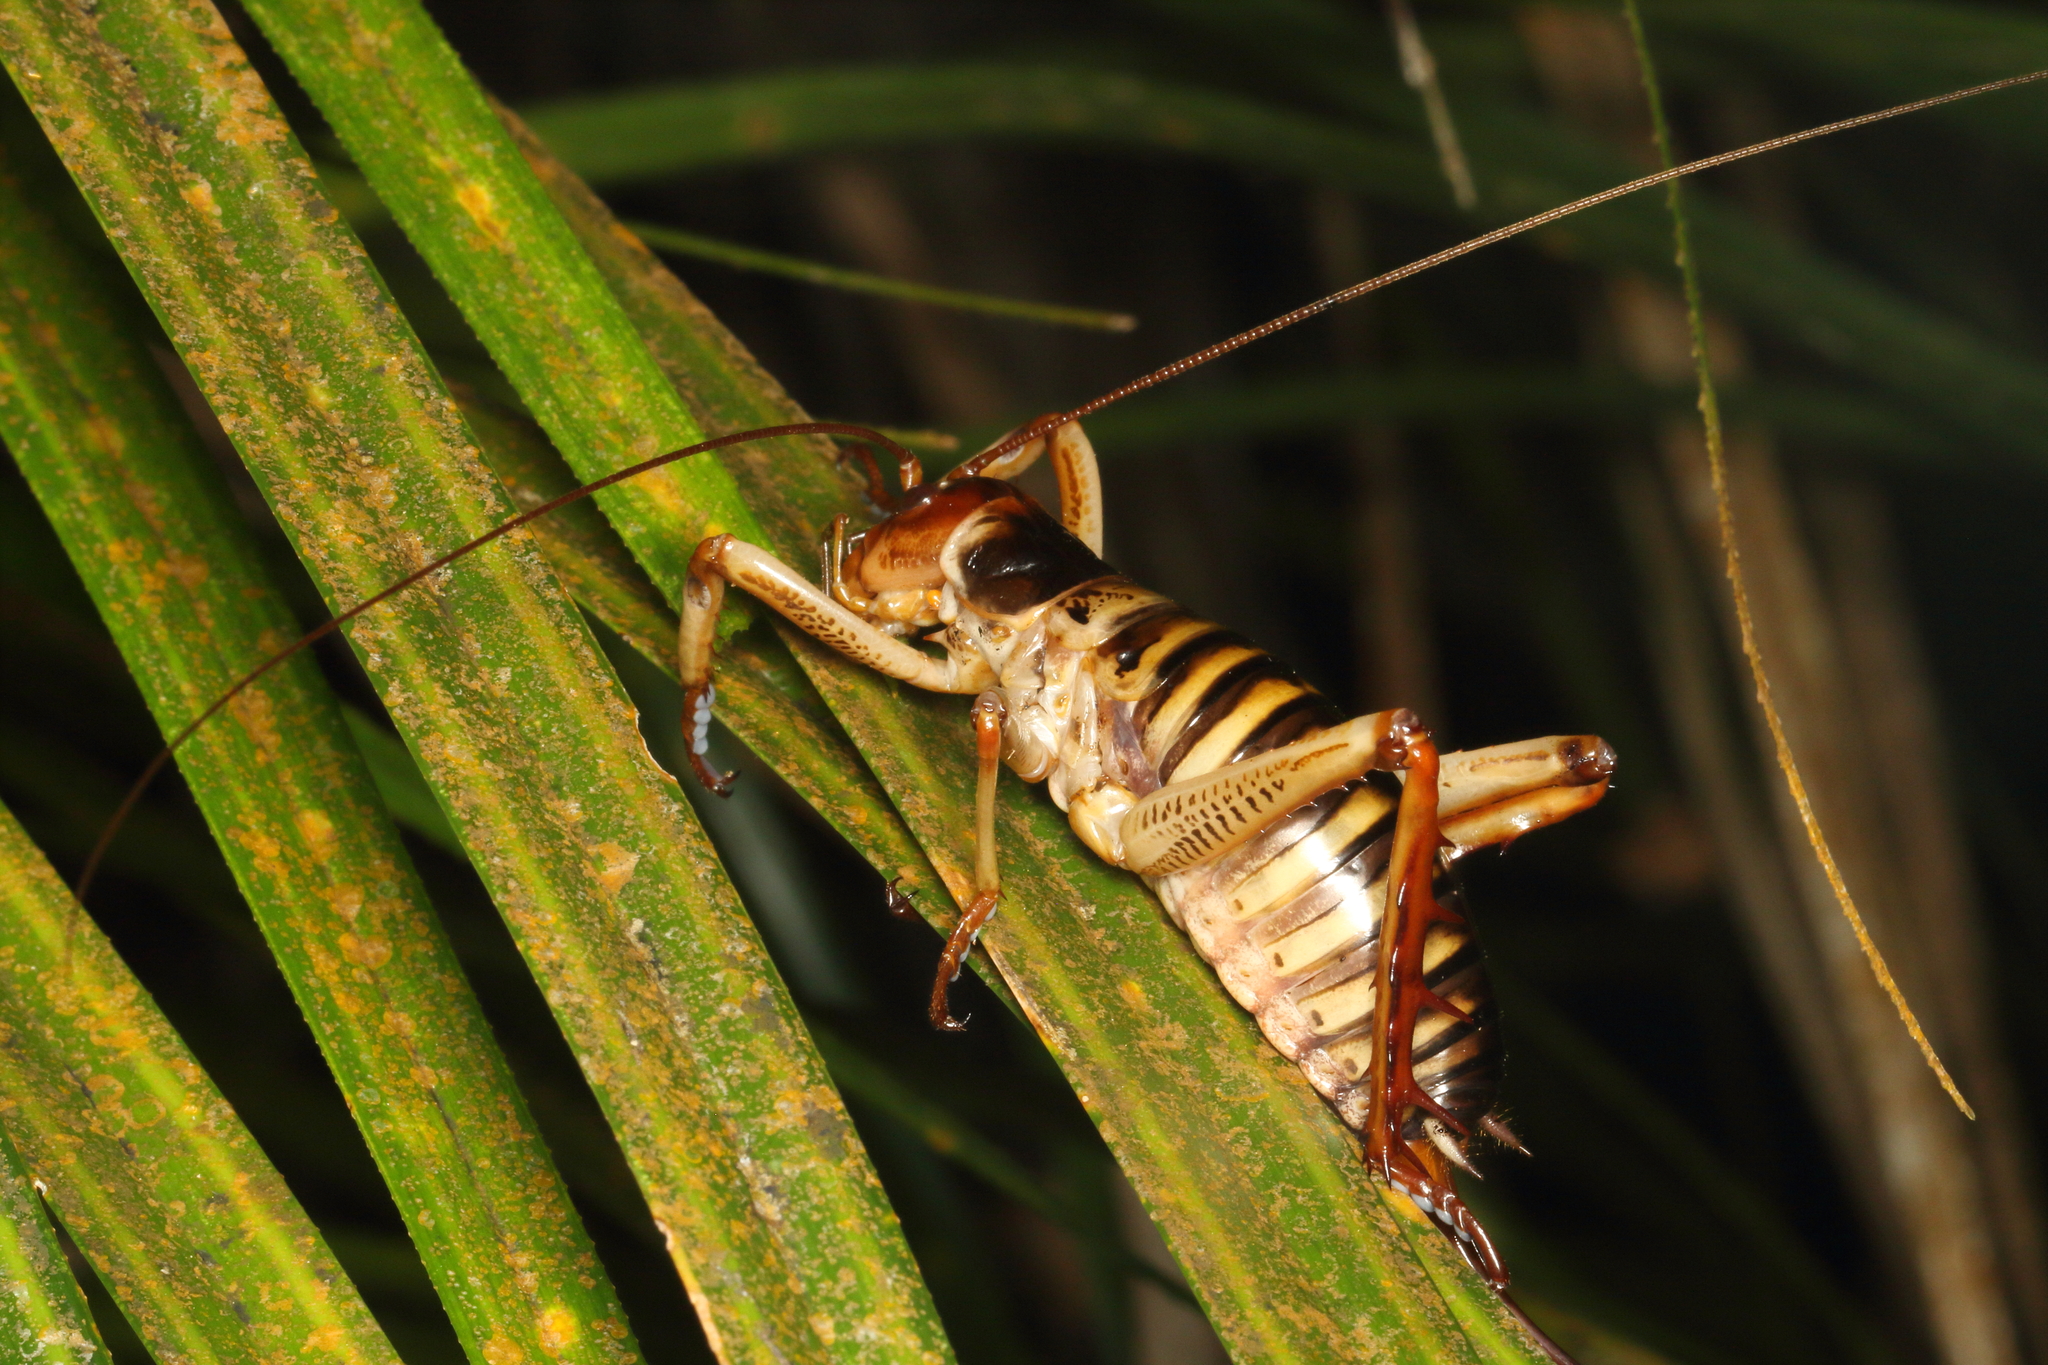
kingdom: Animalia
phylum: Arthropoda
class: Insecta
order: Orthoptera
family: Anostostomatidae
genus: Hemideina
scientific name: Hemideina crassidens
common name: Wellington tree weta
